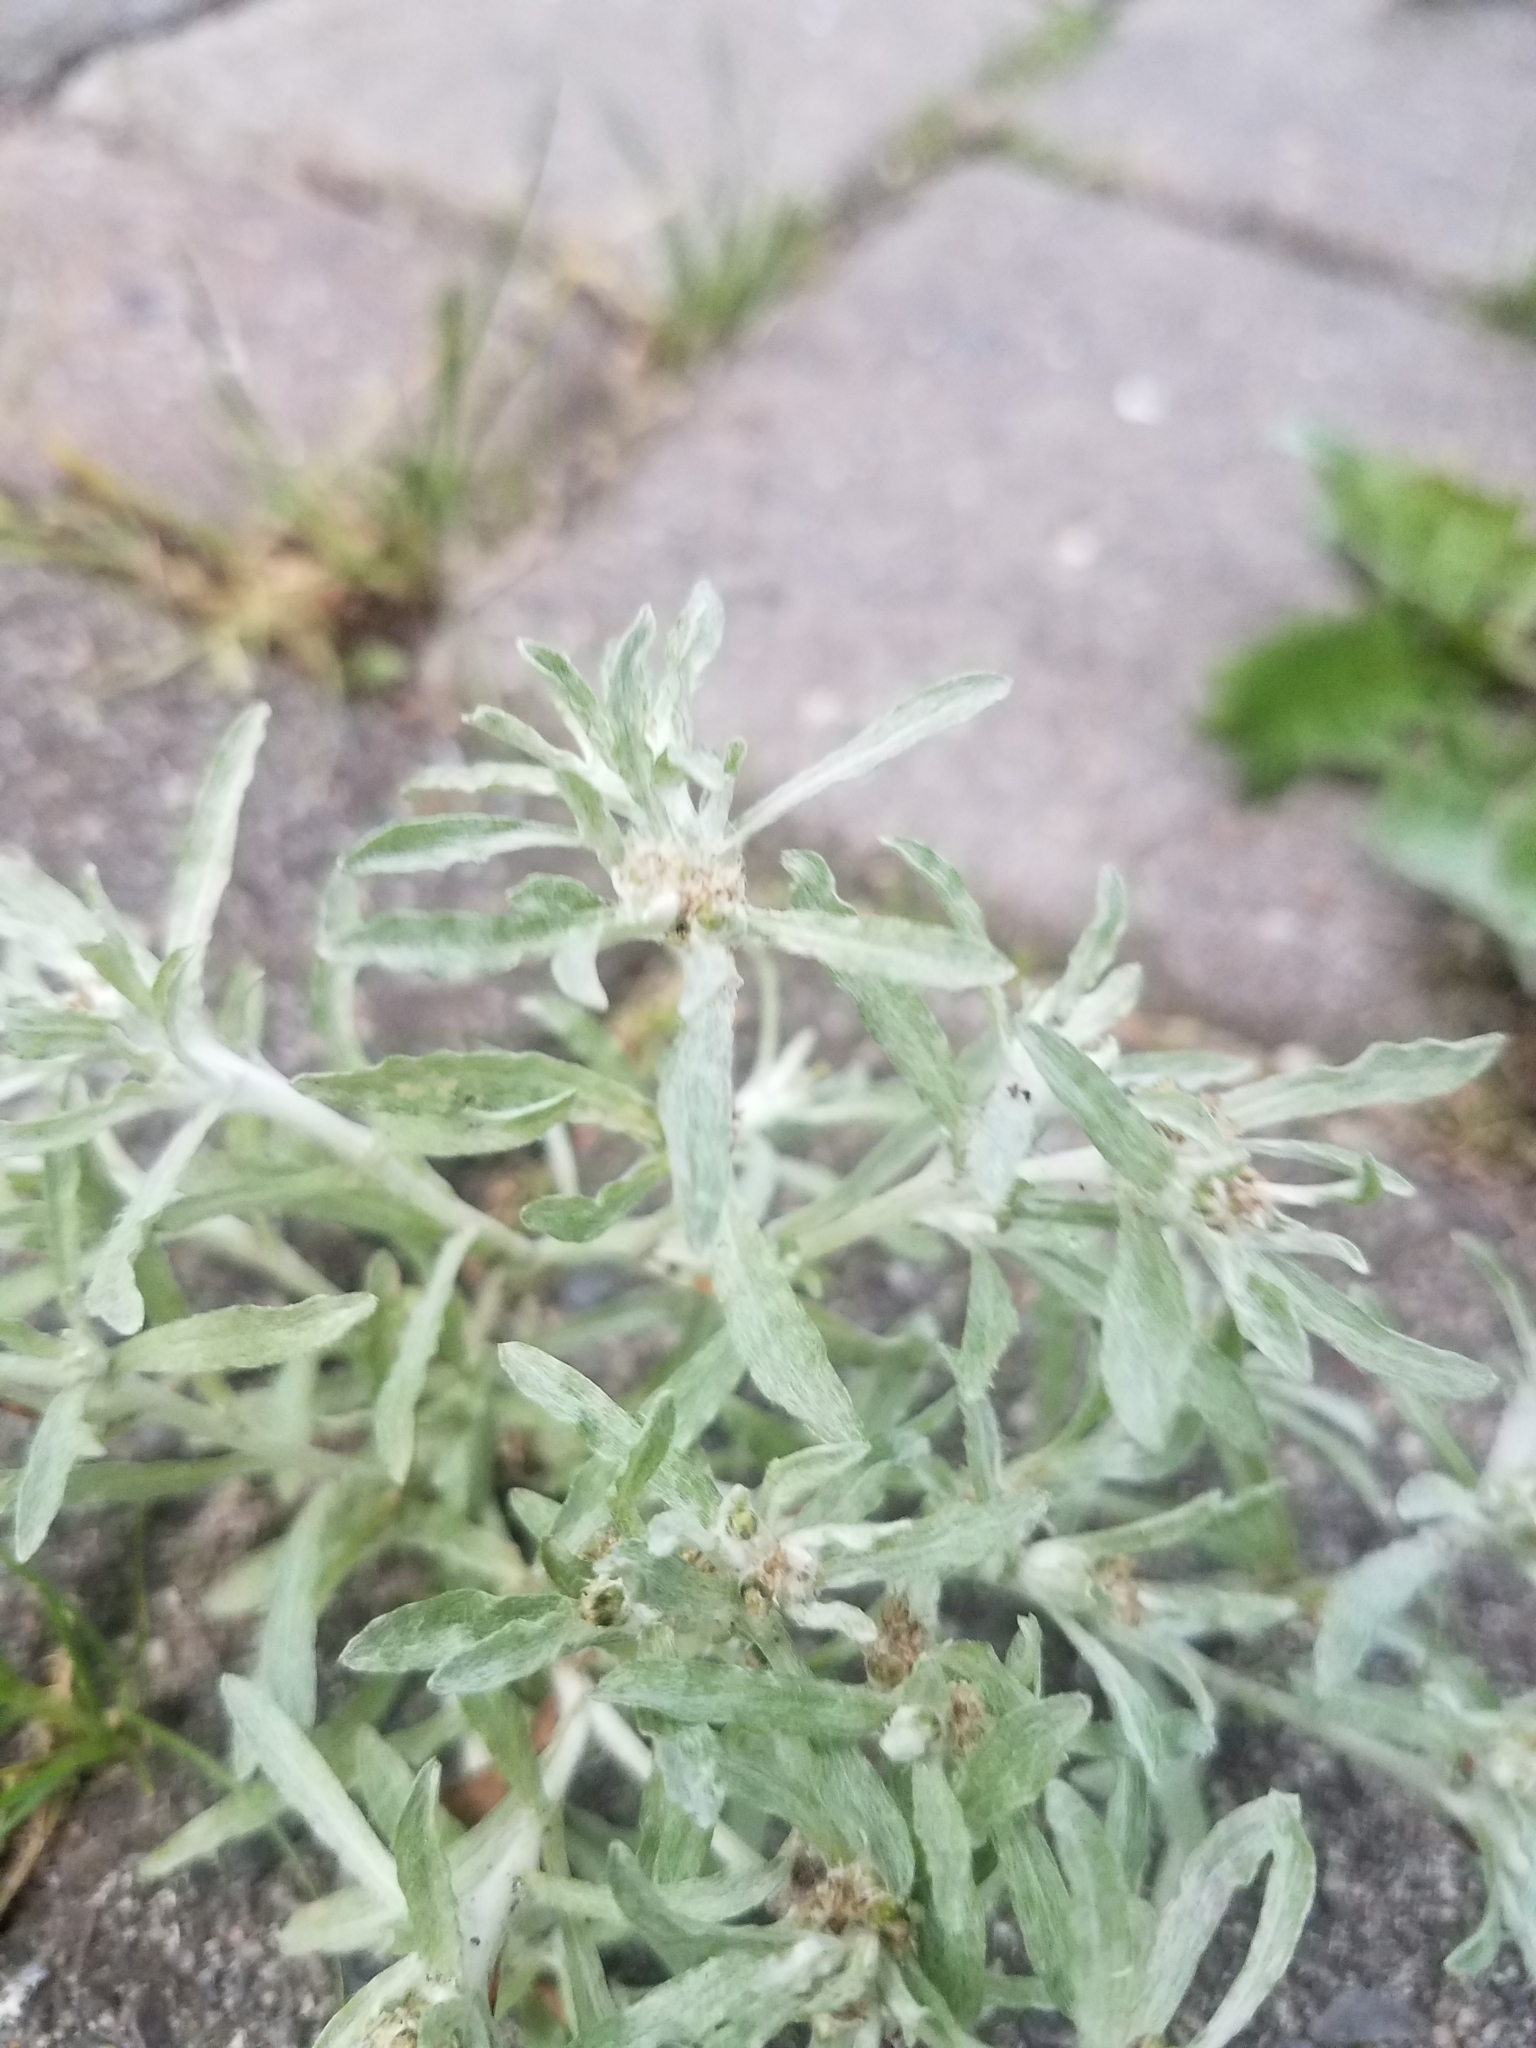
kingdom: Plantae
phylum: Tracheophyta
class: Magnoliopsida
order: Asterales
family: Asteraceae
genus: Gnaphalium
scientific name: Gnaphalium uliginosum
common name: Marsh cudweed
